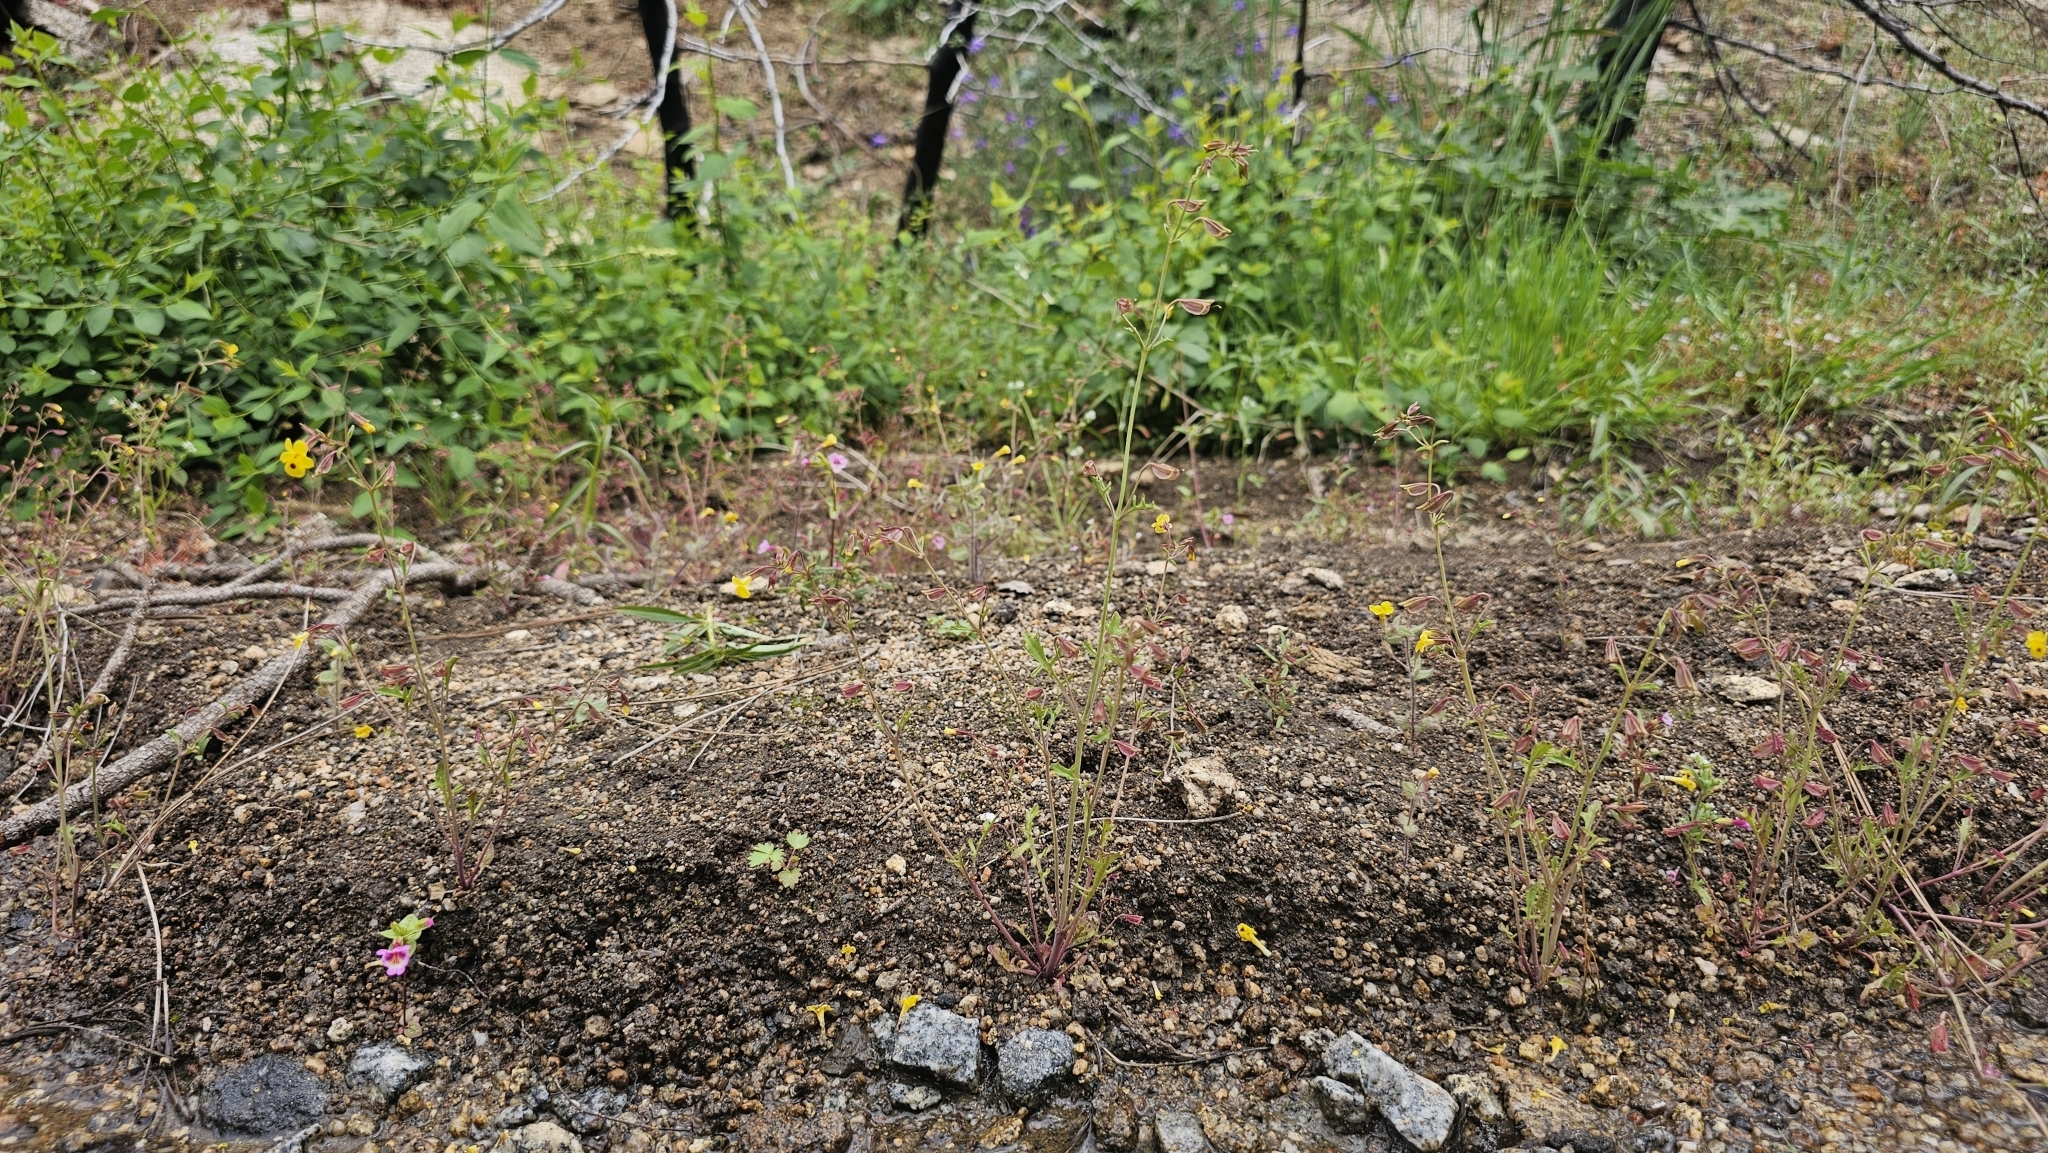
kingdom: Plantae
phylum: Tracheophyta
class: Magnoliopsida
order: Lamiales
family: Phrymaceae
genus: Erythranthe
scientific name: Erythranthe laciniata
